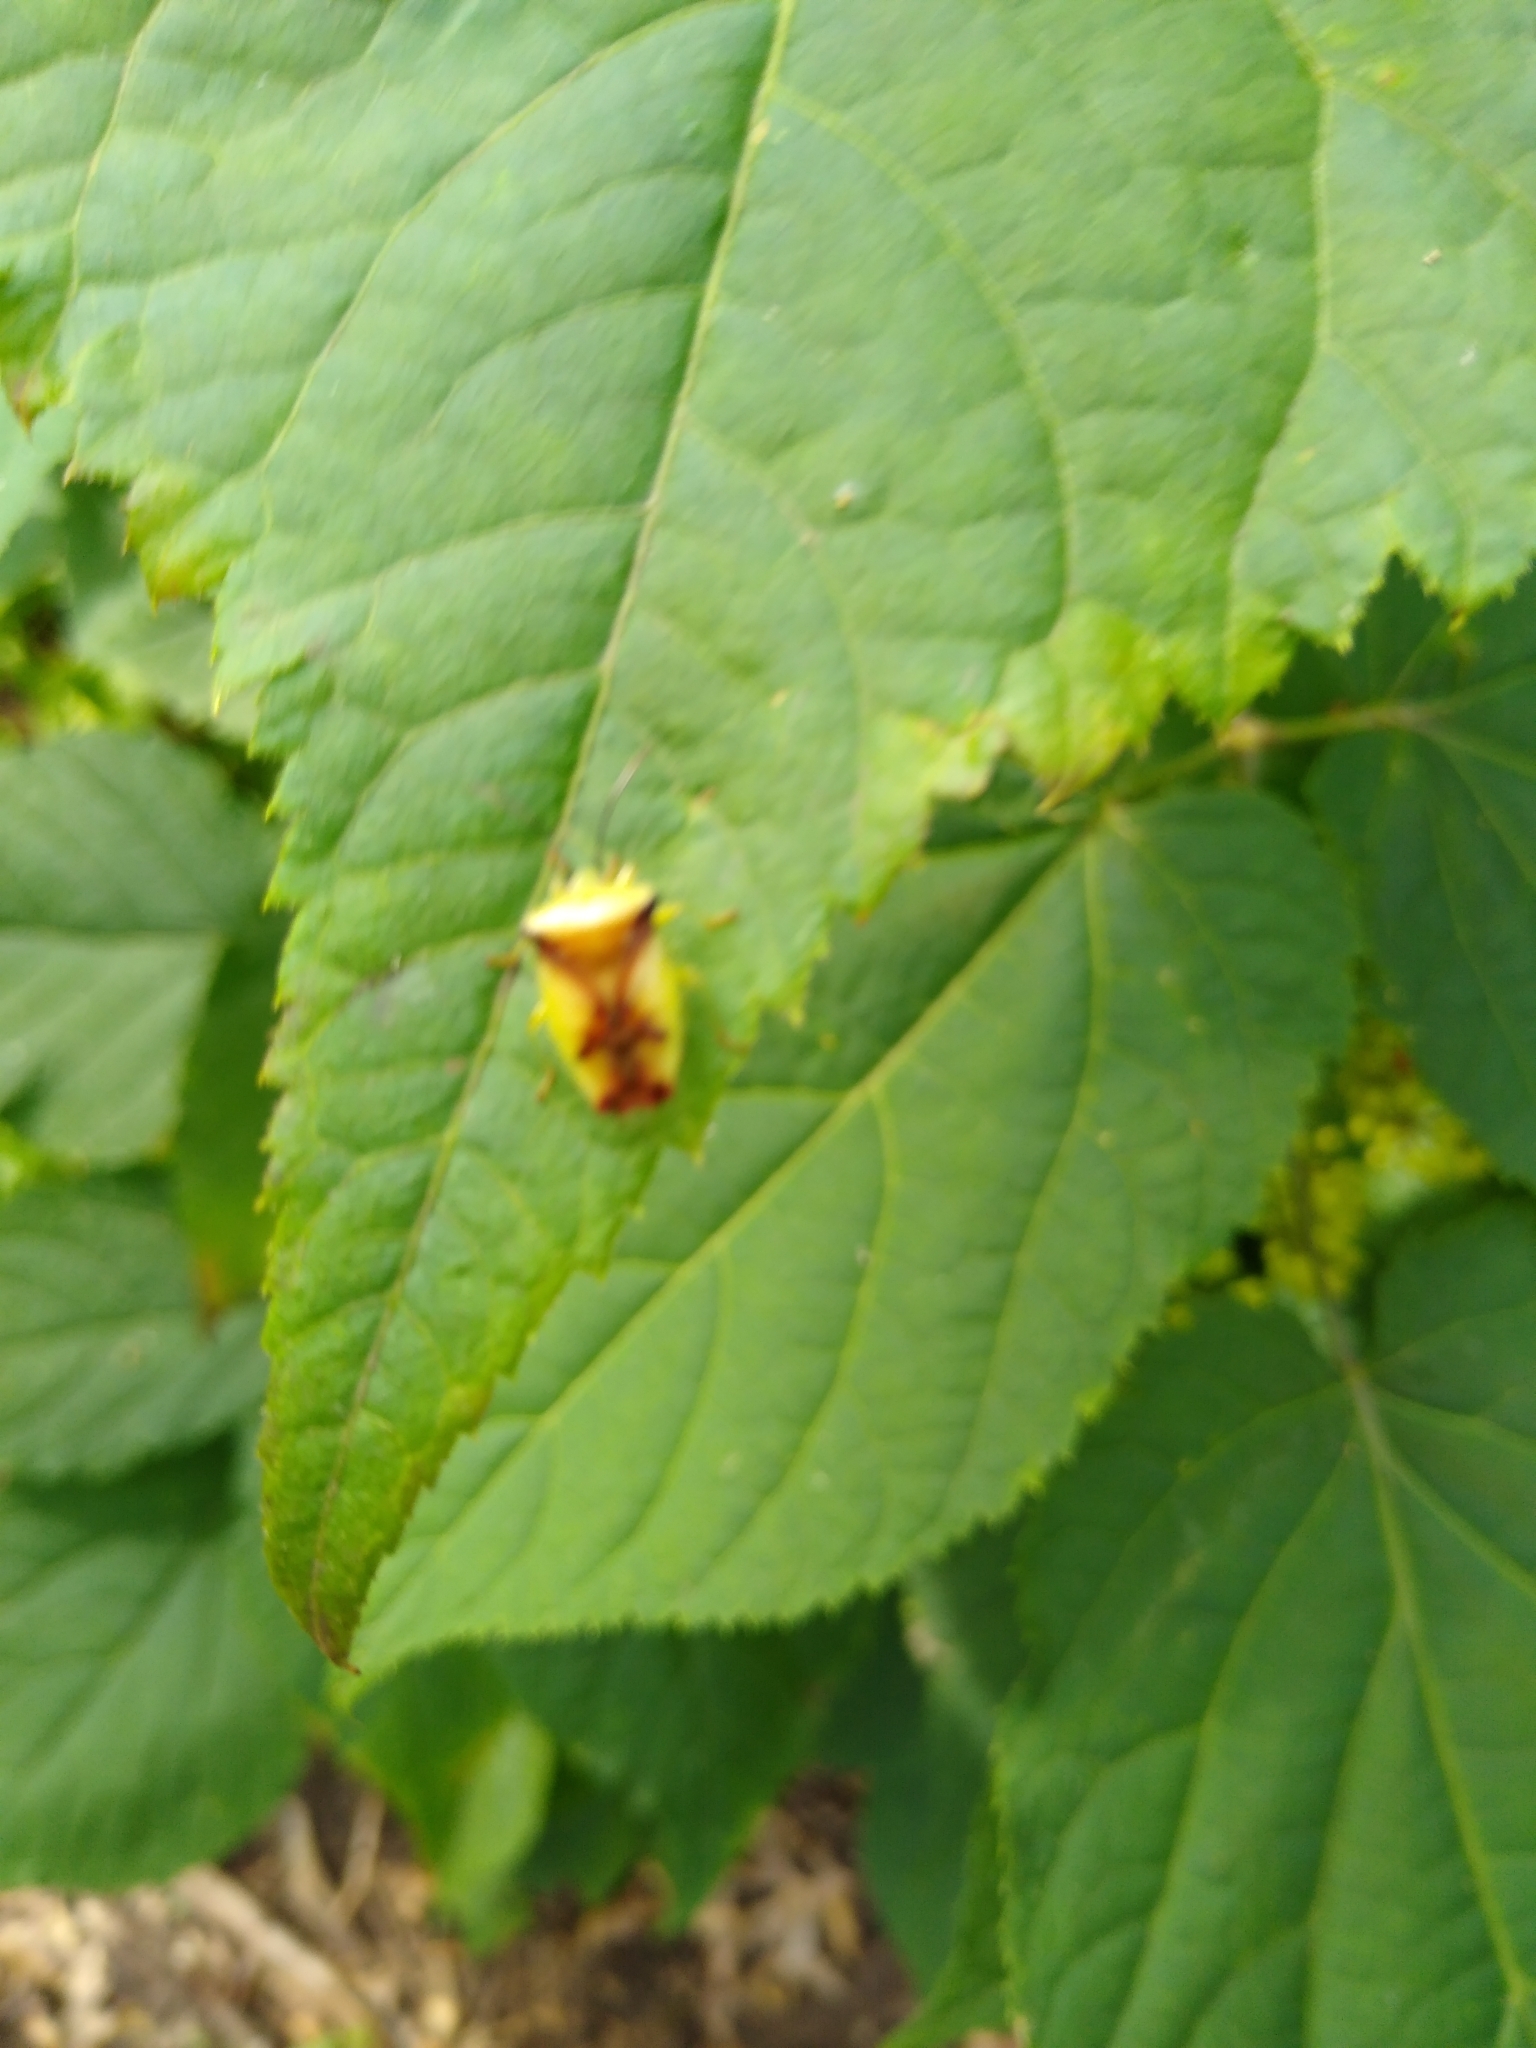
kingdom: Animalia
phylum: Arthropoda
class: Insecta
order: Hemiptera
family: Acanthosomatidae
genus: Elasmostethus
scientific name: Elasmostethus atricornis
